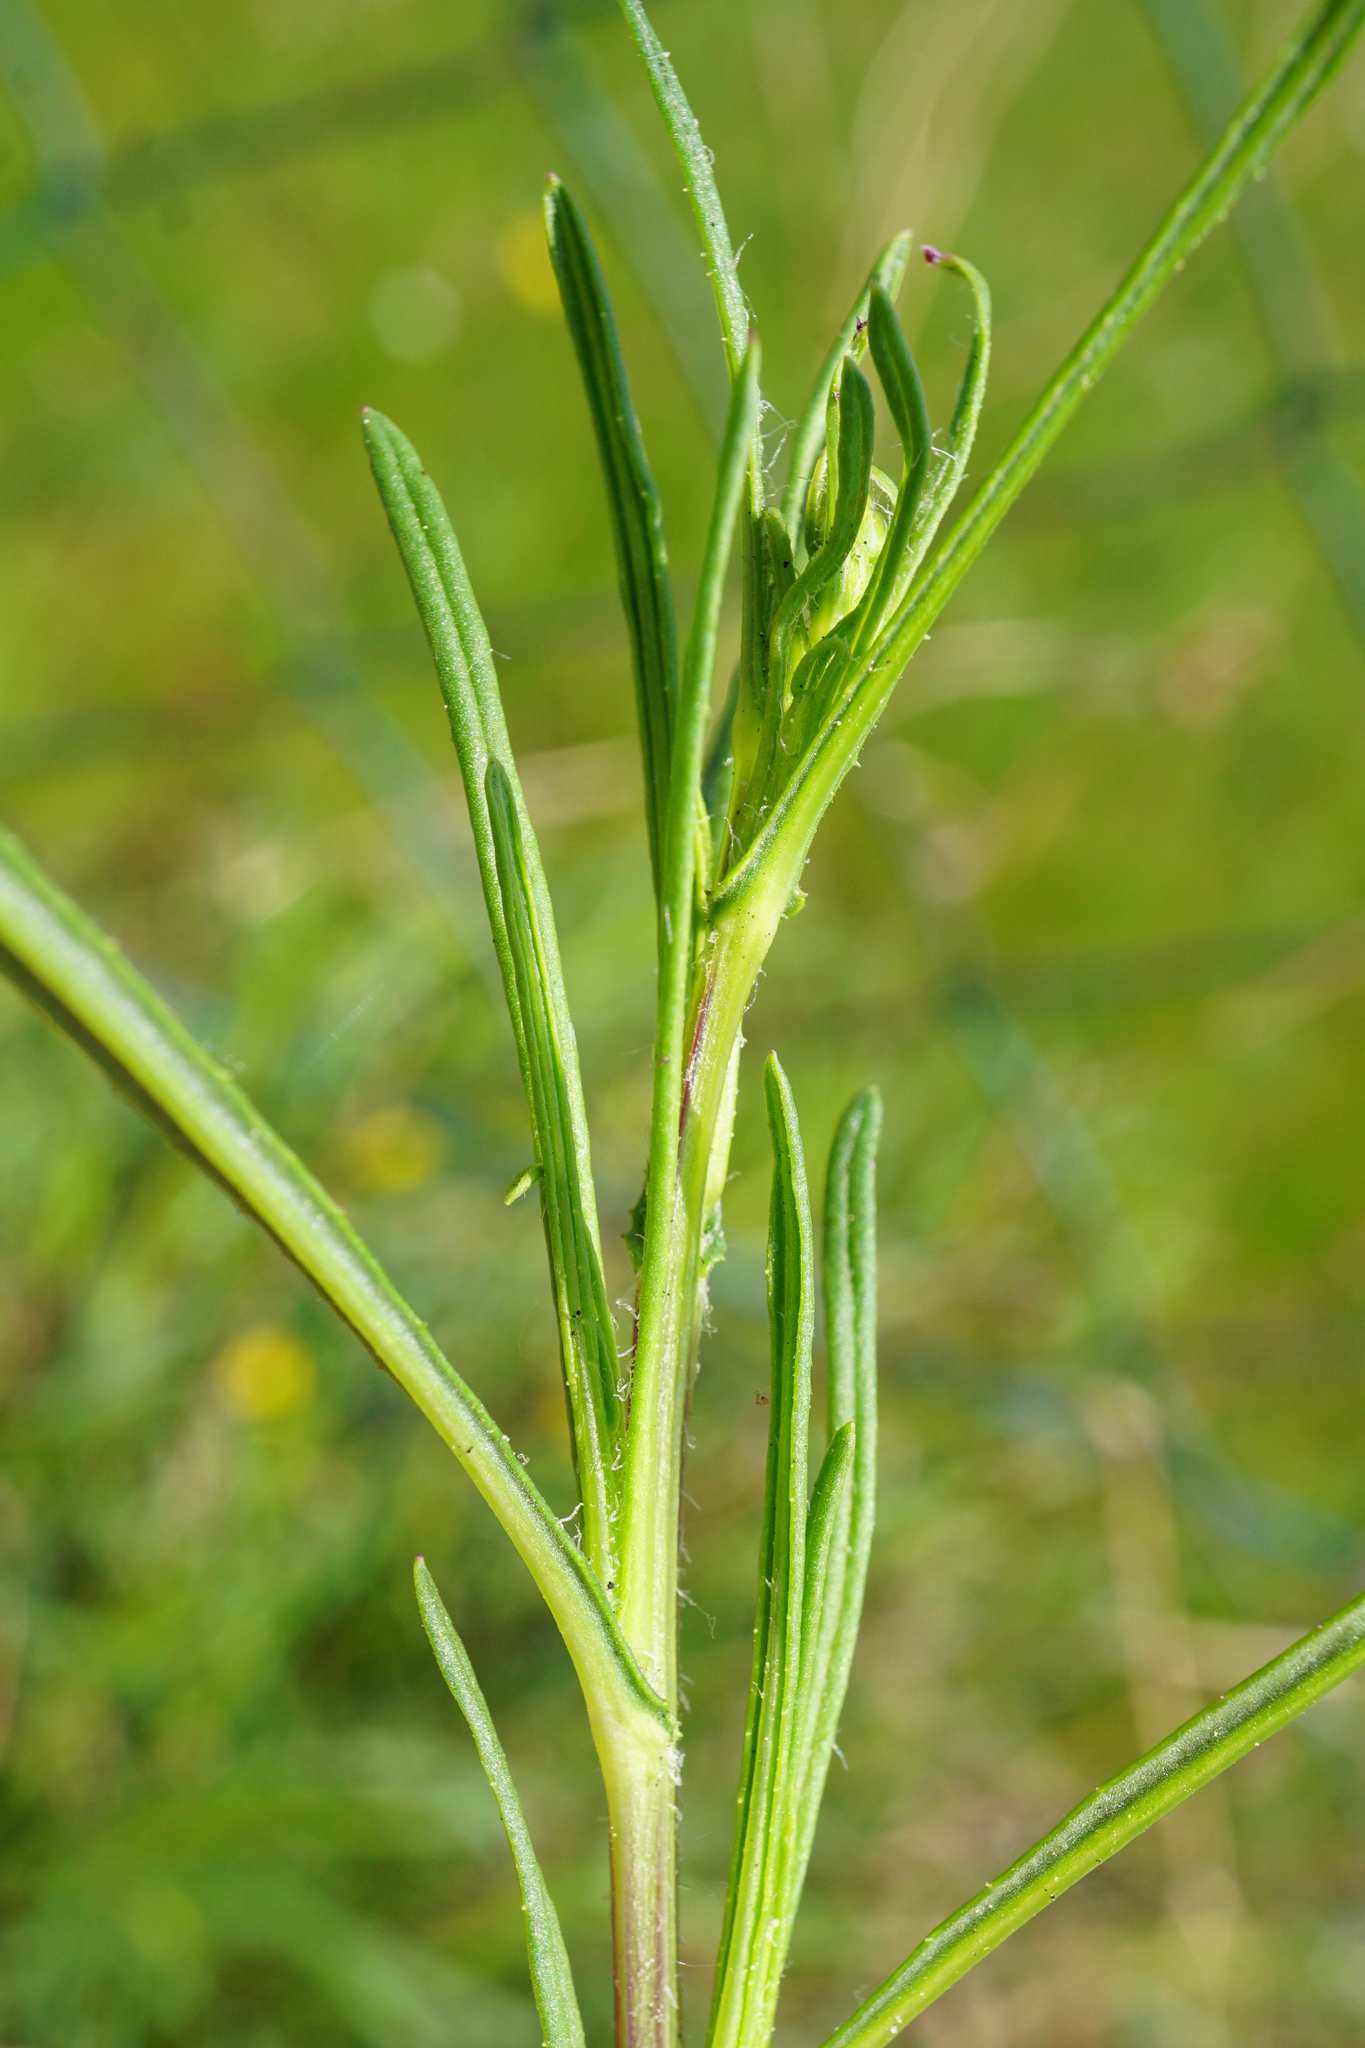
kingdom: Plantae
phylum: Tracheophyta
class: Magnoliopsida
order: Asterales
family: Asteraceae
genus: Senecio
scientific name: Senecio inaequidens
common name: Narrow-leaved ragwort
